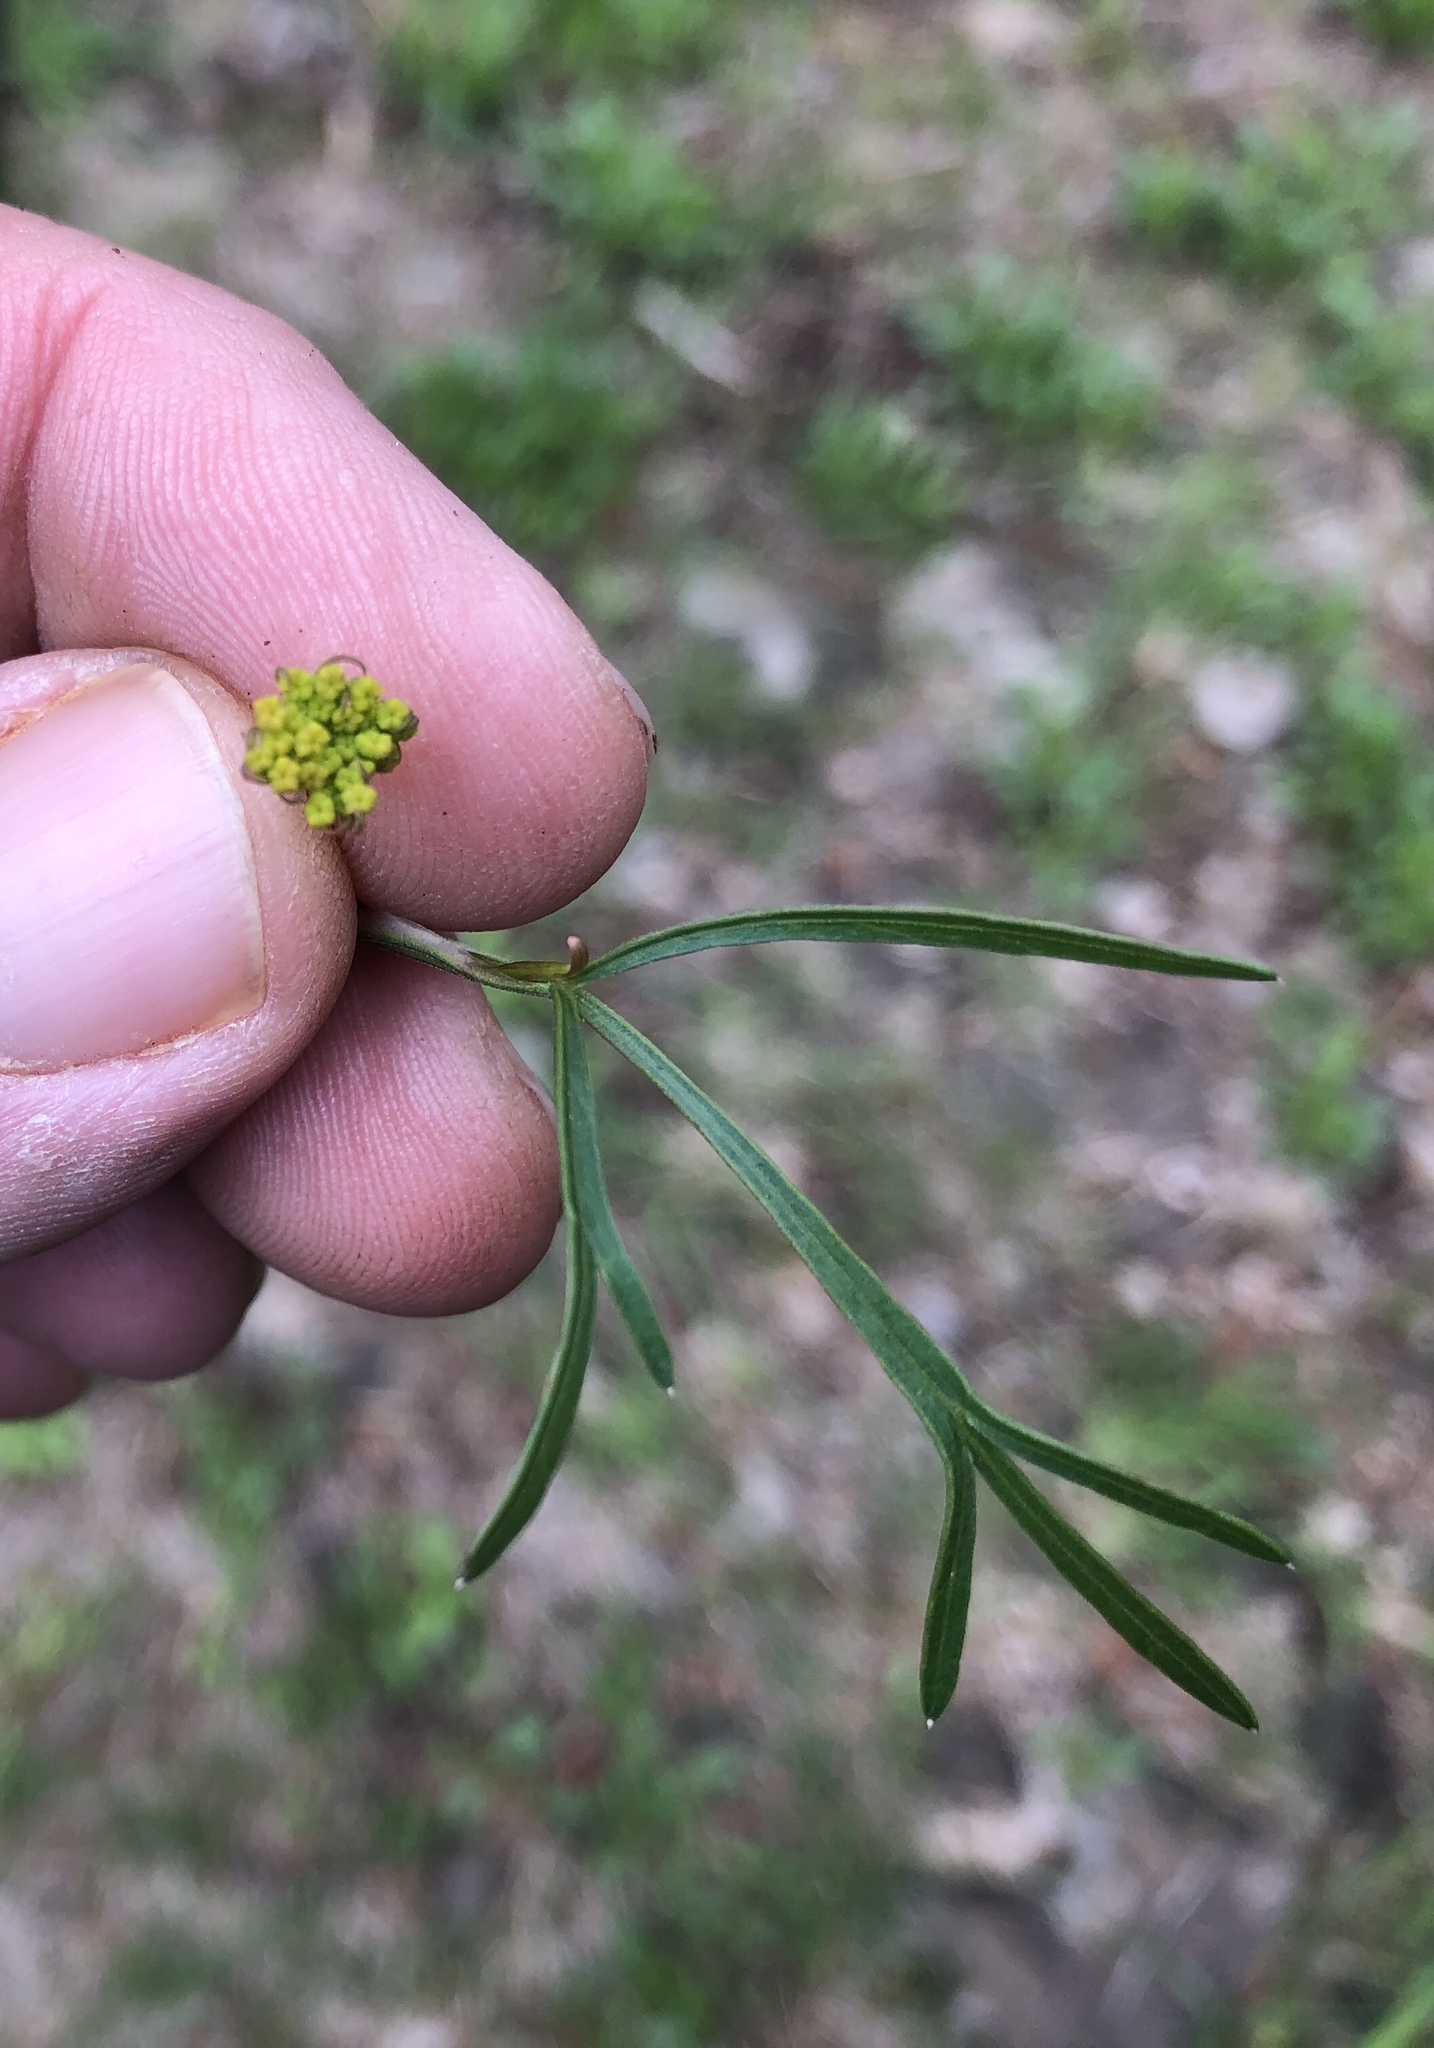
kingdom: Plantae
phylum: Tracheophyta
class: Magnoliopsida
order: Brassicales
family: Brassicaceae
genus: Capsella
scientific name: Capsella bursa-pastoris
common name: Shepherd's purse
